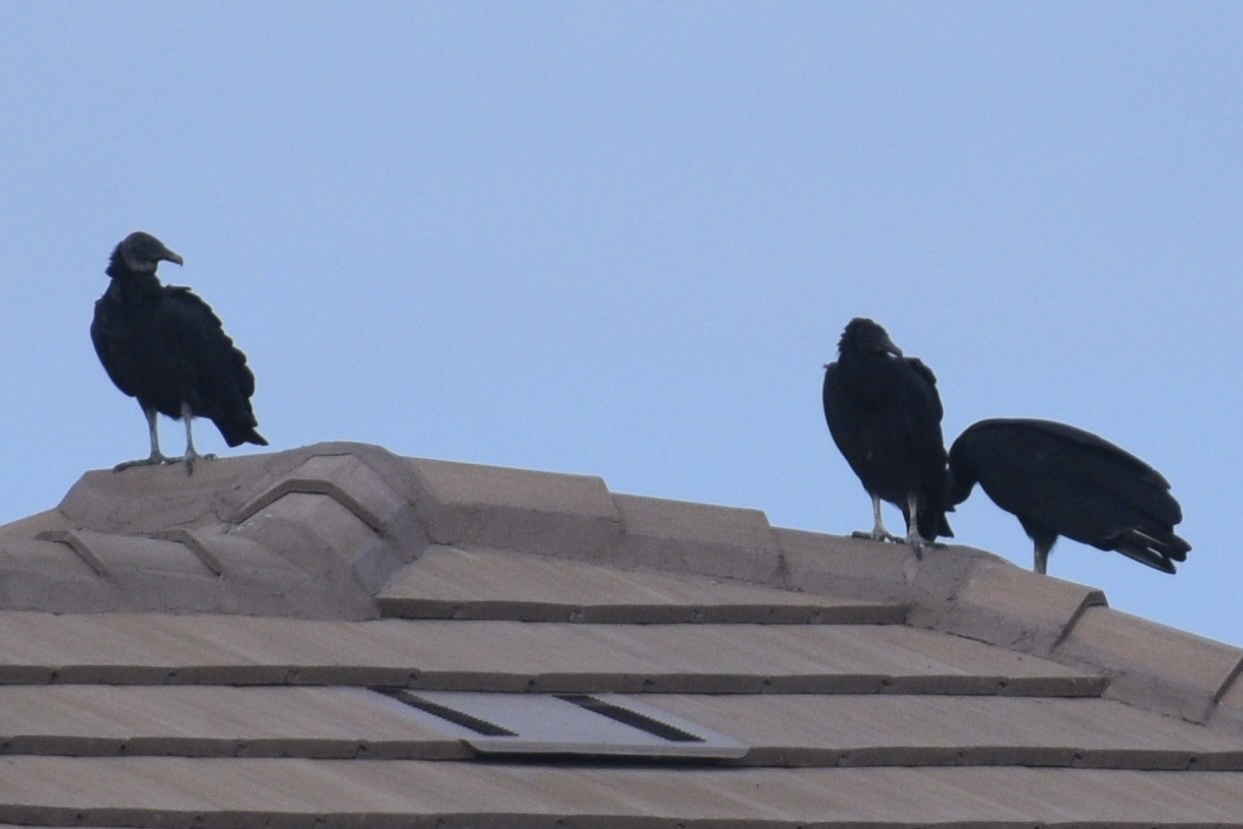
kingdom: Animalia
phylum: Chordata
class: Aves
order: Accipitriformes
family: Cathartidae
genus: Coragyps
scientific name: Coragyps atratus
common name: Black vulture
